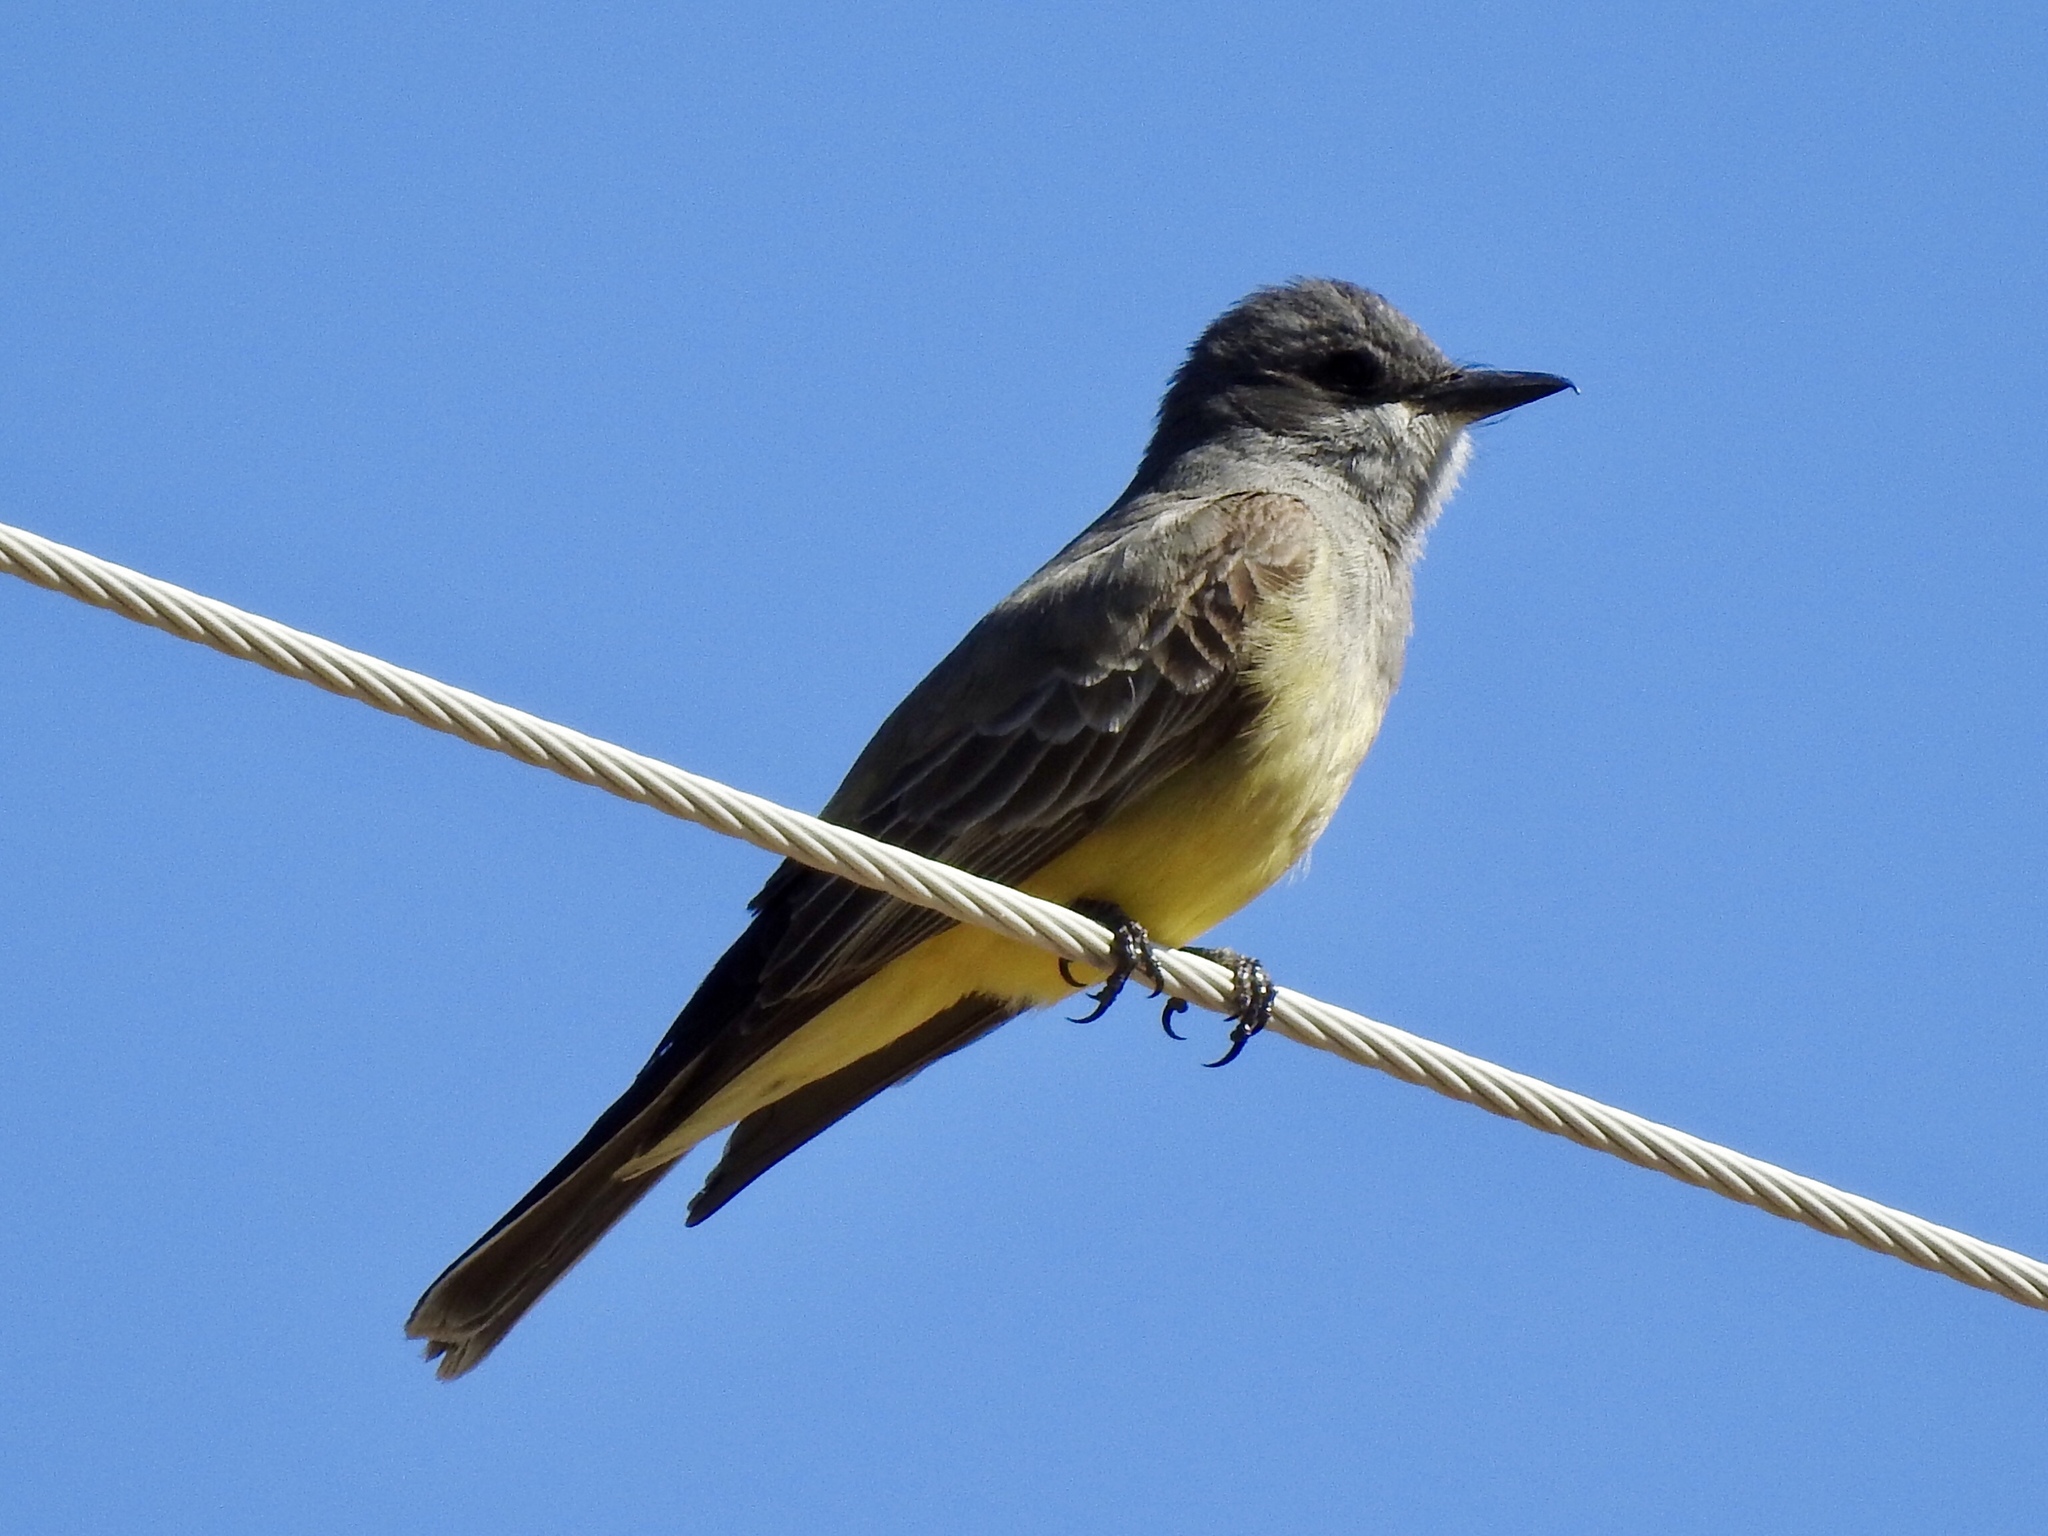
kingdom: Animalia
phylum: Chordata
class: Aves
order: Passeriformes
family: Tyrannidae
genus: Tyrannus
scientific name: Tyrannus vociferans
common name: Cassin's kingbird
